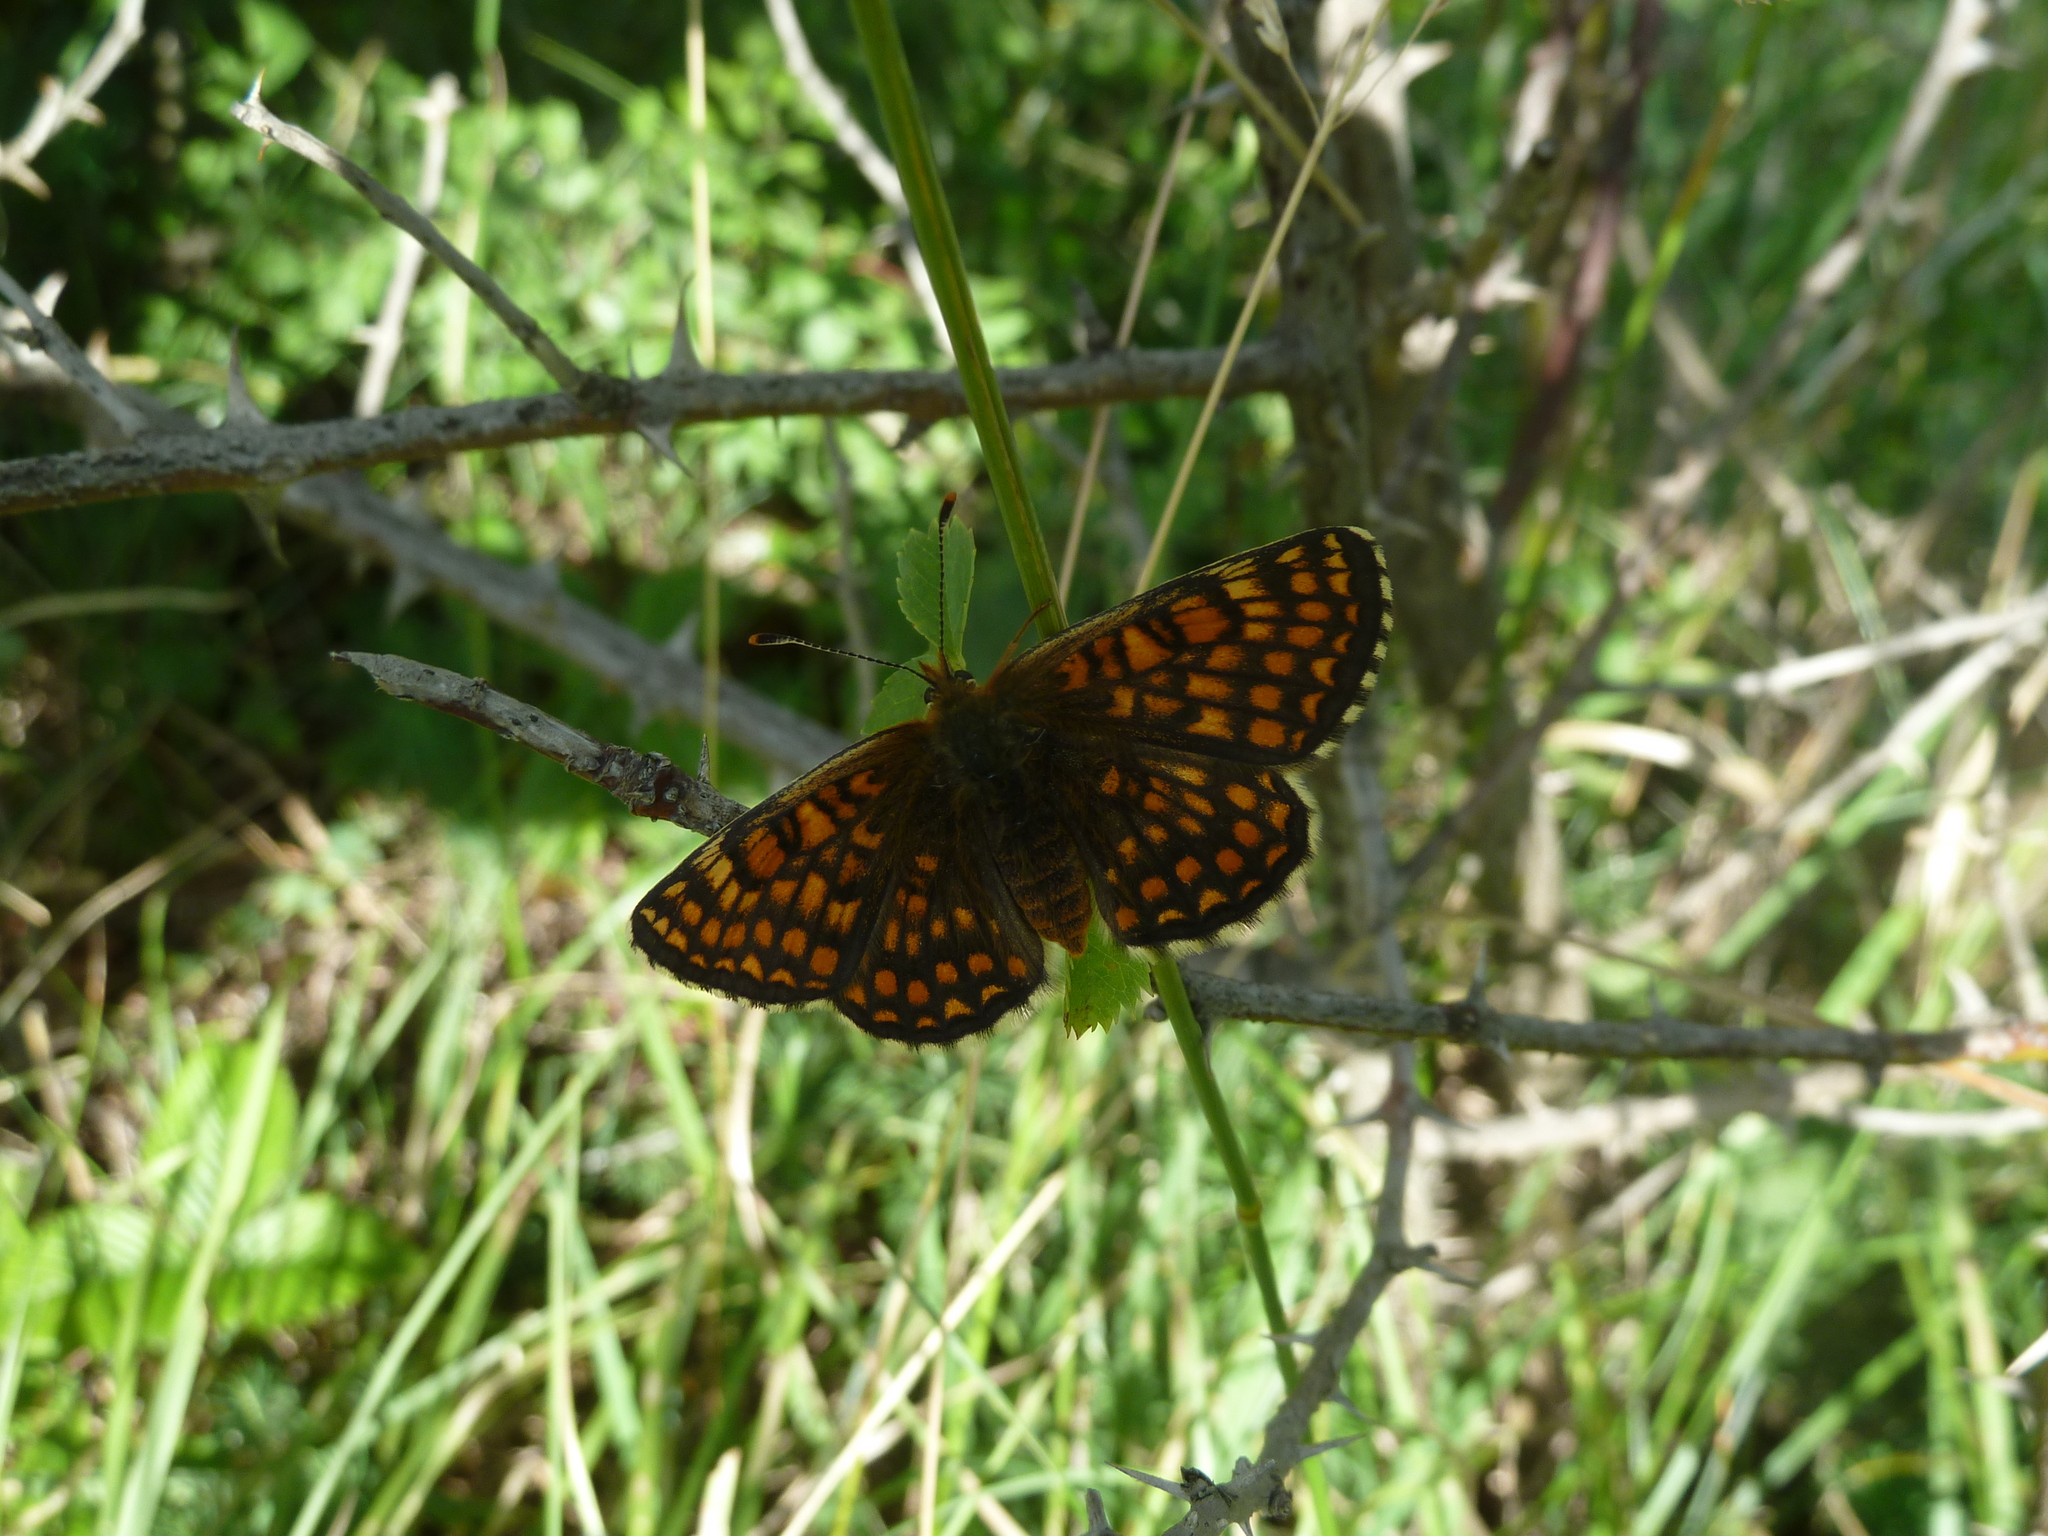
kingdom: Animalia
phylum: Arthropoda
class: Insecta
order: Lepidoptera
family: Nymphalidae
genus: Melitaea
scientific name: Melitaea athalia
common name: Heath fritillary
